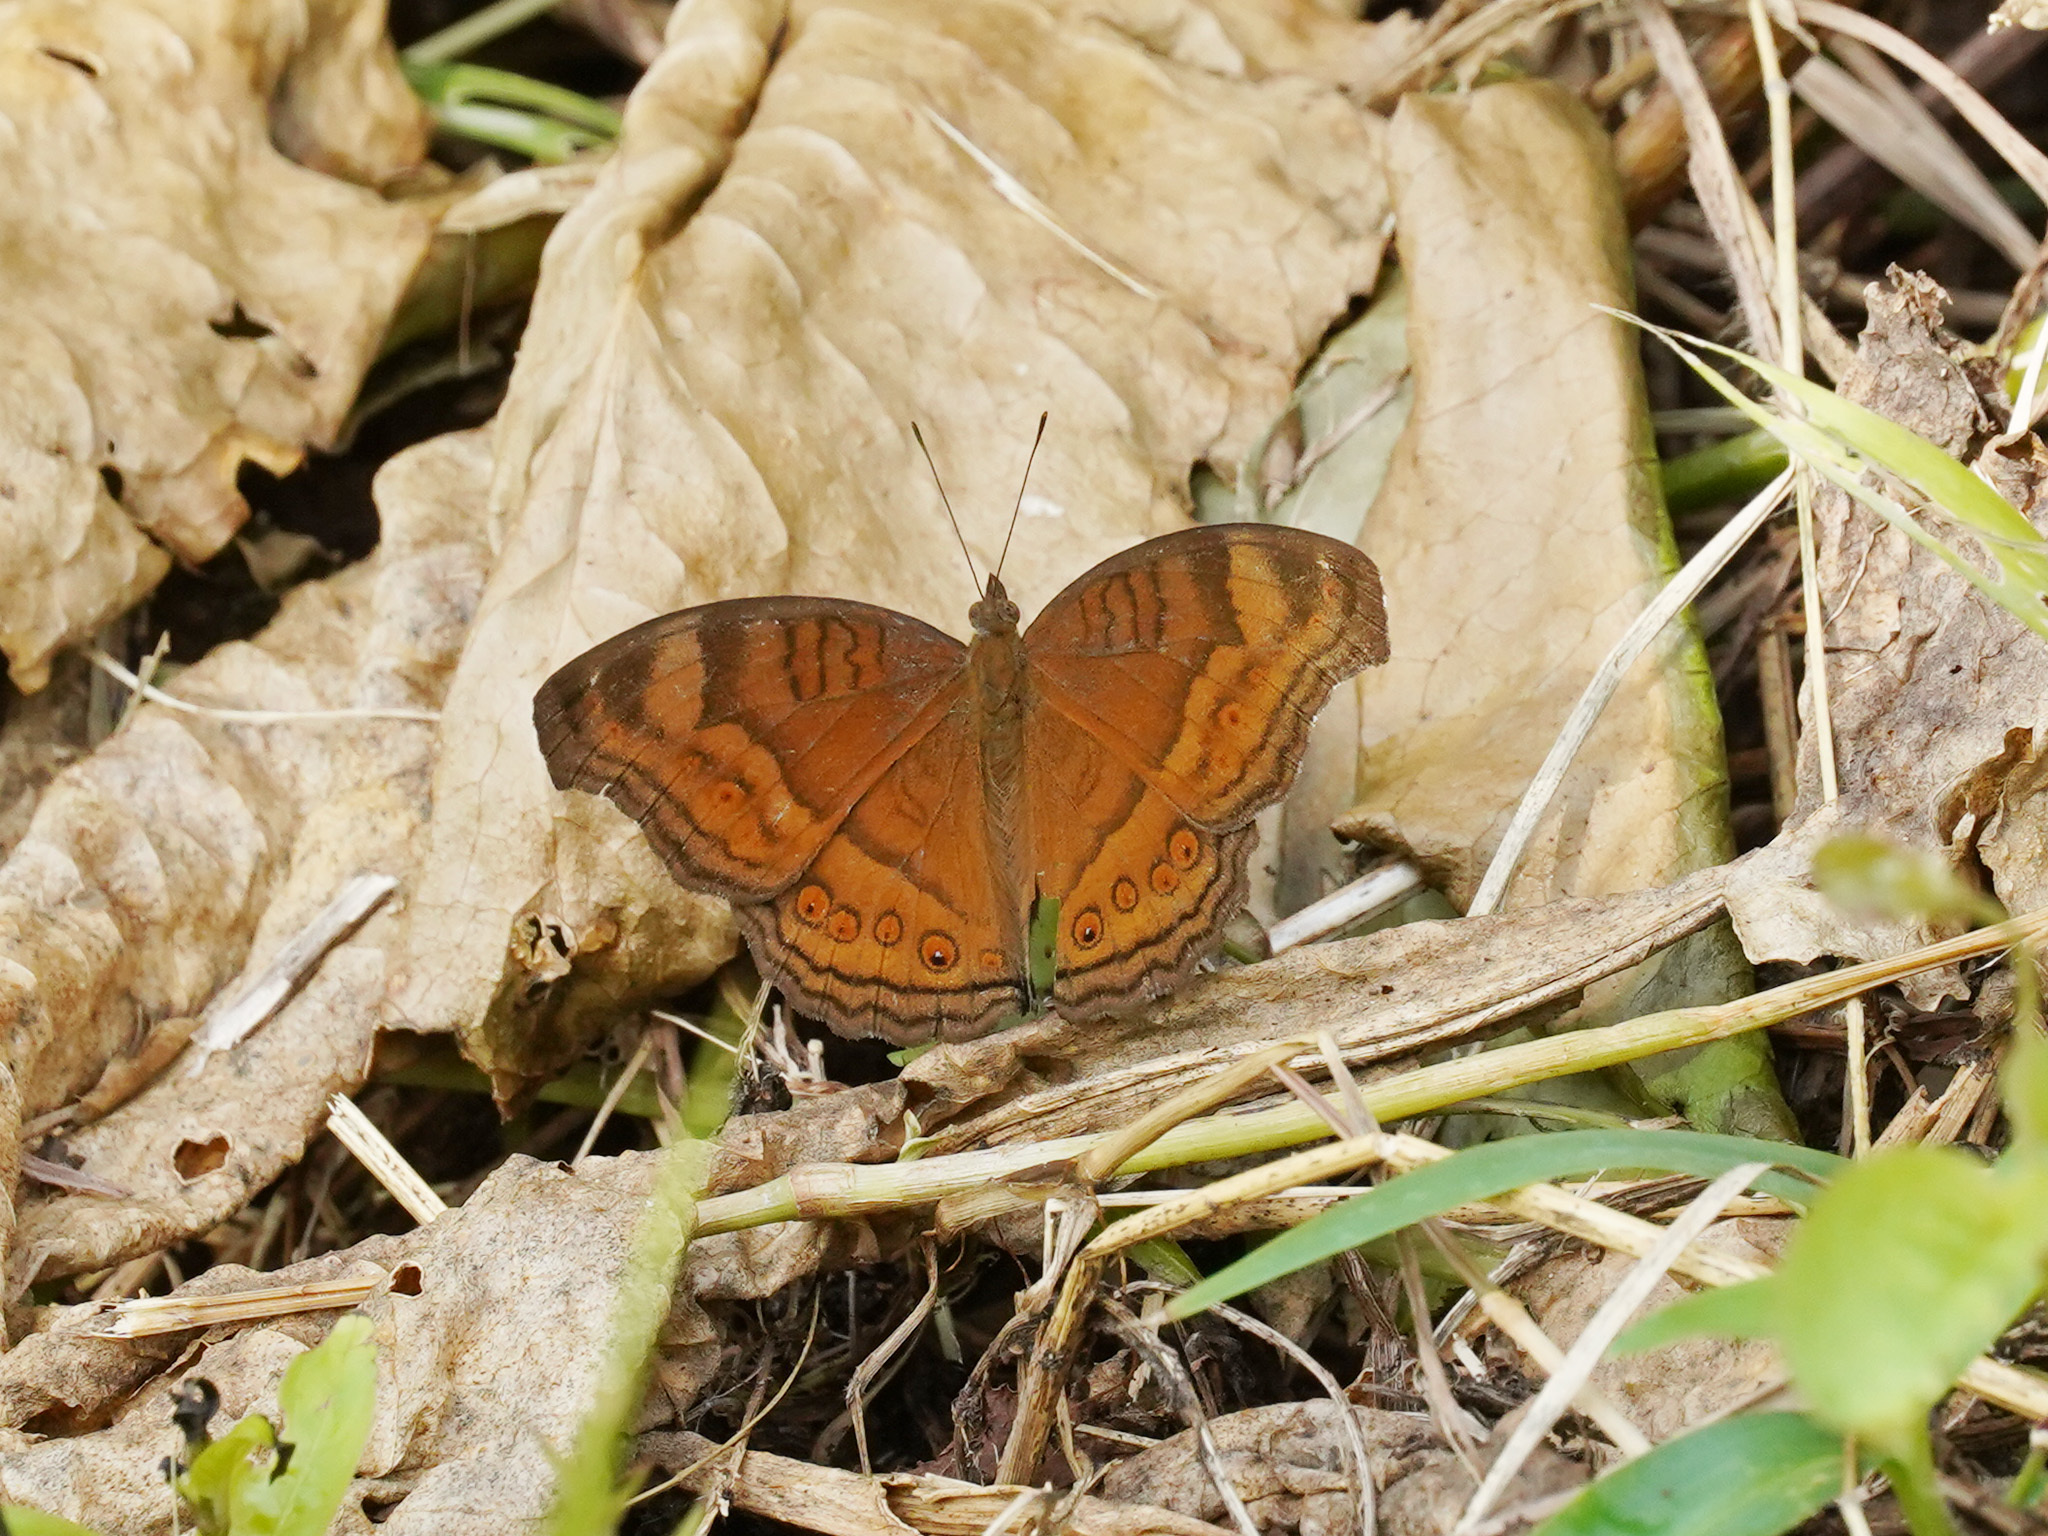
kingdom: Animalia
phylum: Arthropoda
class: Insecta
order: Lepidoptera
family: Nymphalidae
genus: Junonia
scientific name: Junonia hedonia
